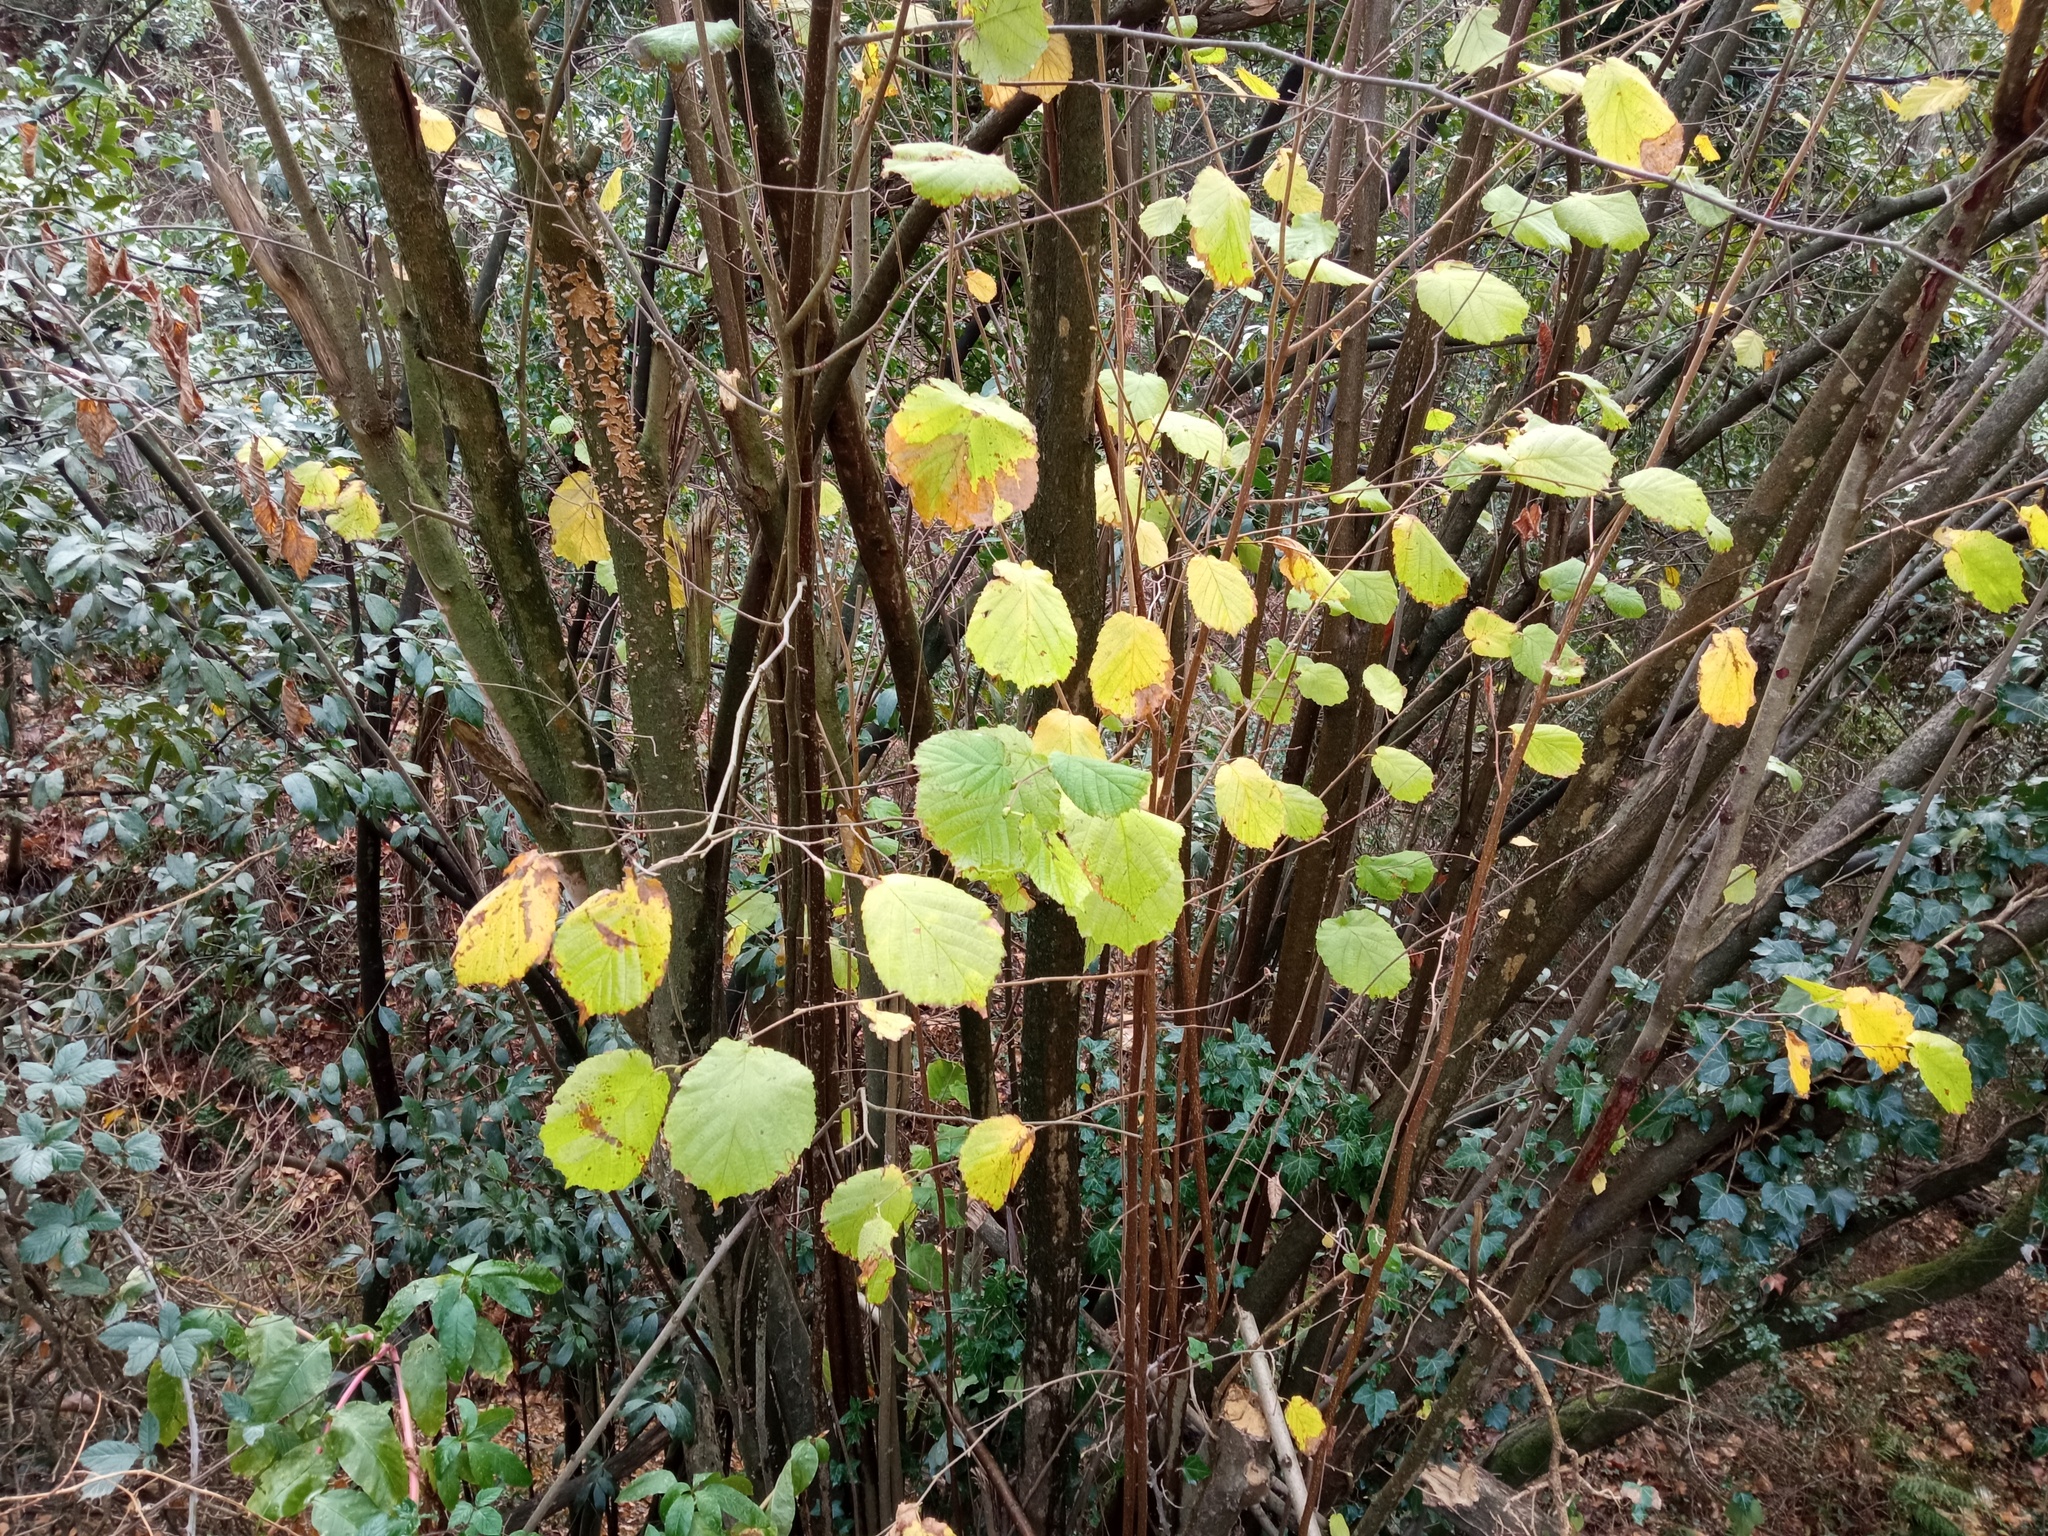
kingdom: Plantae
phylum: Tracheophyta
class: Magnoliopsida
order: Fagales
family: Betulaceae
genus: Corylus
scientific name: Corylus avellana
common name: European hazel
